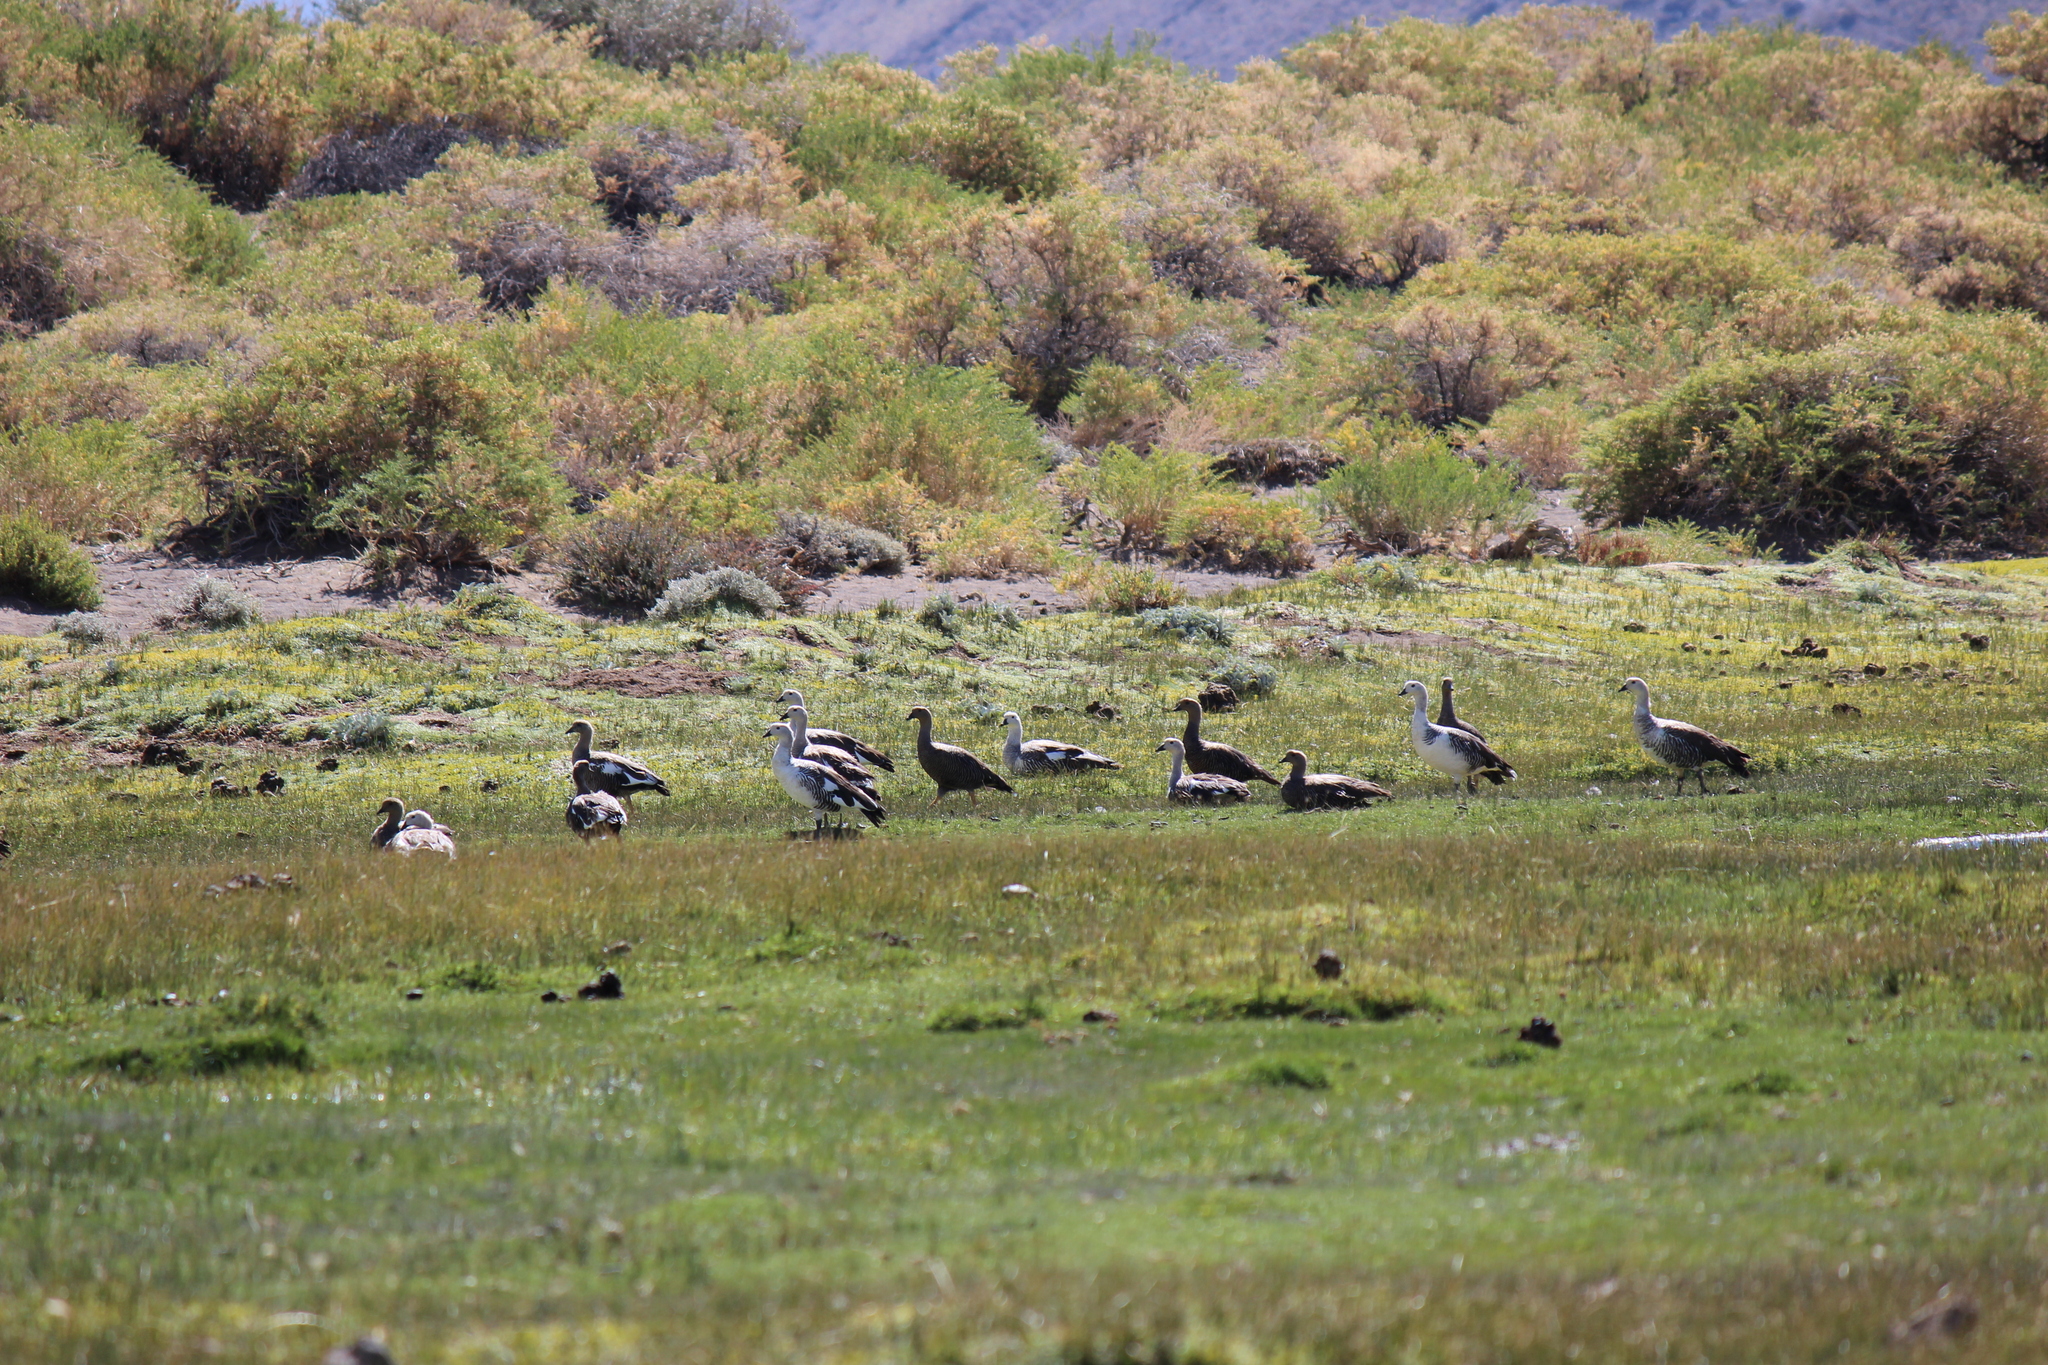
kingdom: Animalia
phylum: Chordata
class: Aves
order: Anseriformes
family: Anatidae
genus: Chloephaga
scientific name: Chloephaga picta
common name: Upland goose
